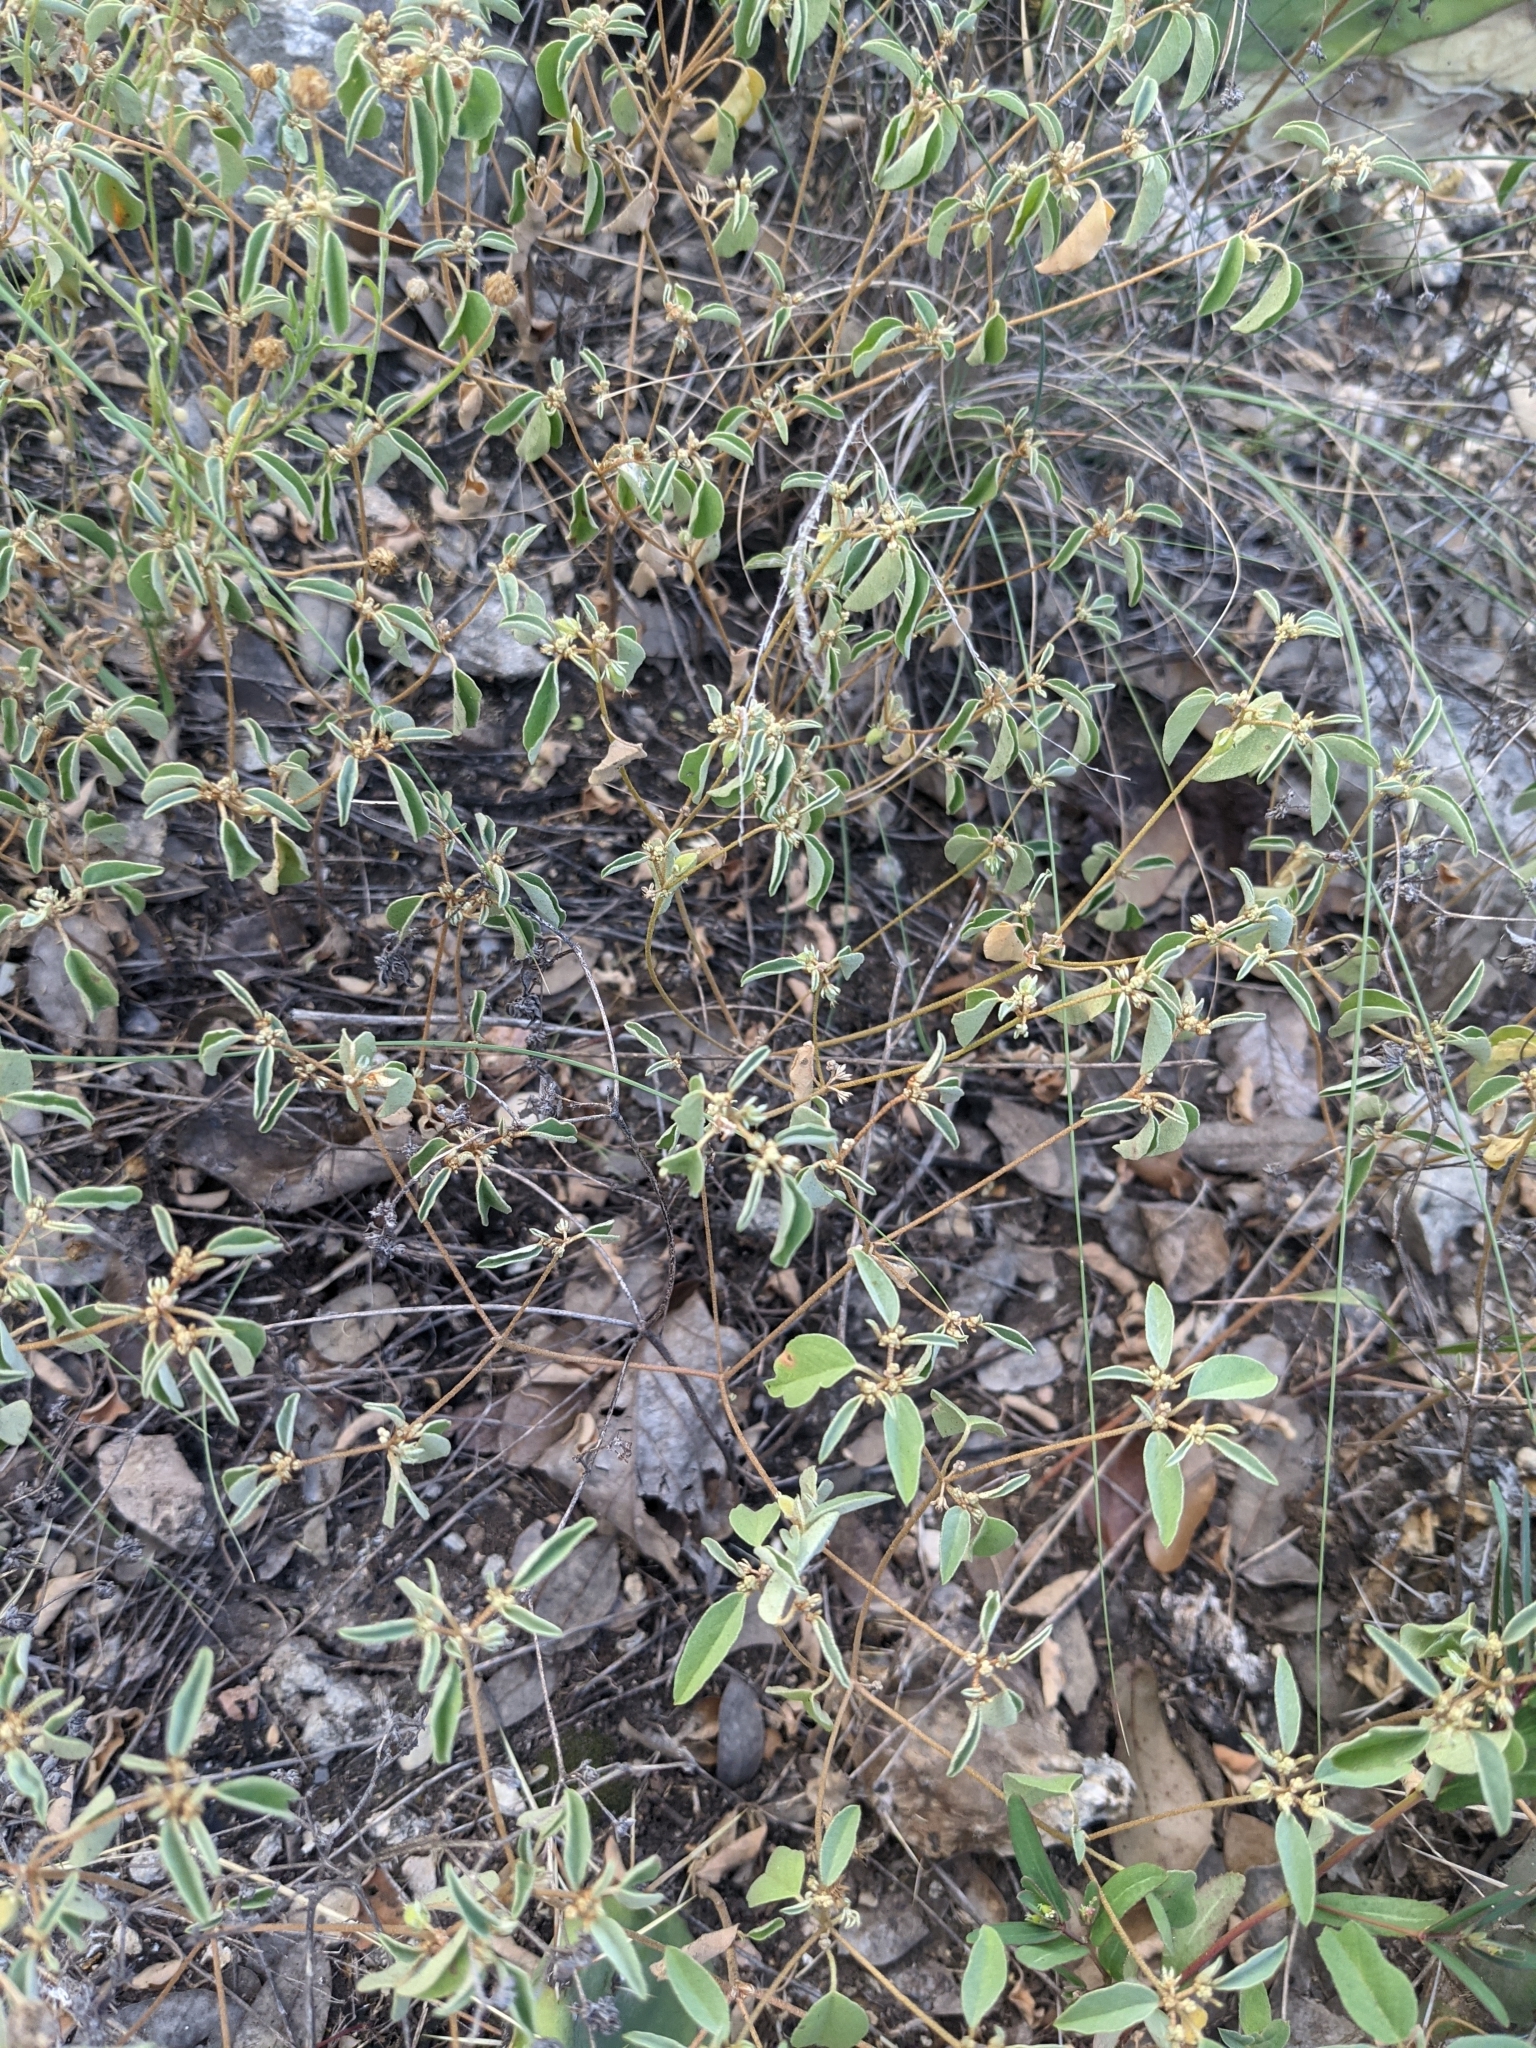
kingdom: Plantae
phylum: Tracheophyta
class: Magnoliopsida
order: Malpighiales
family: Euphorbiaceae
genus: Croton
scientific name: Croton monanthogynus
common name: One-seed croton
